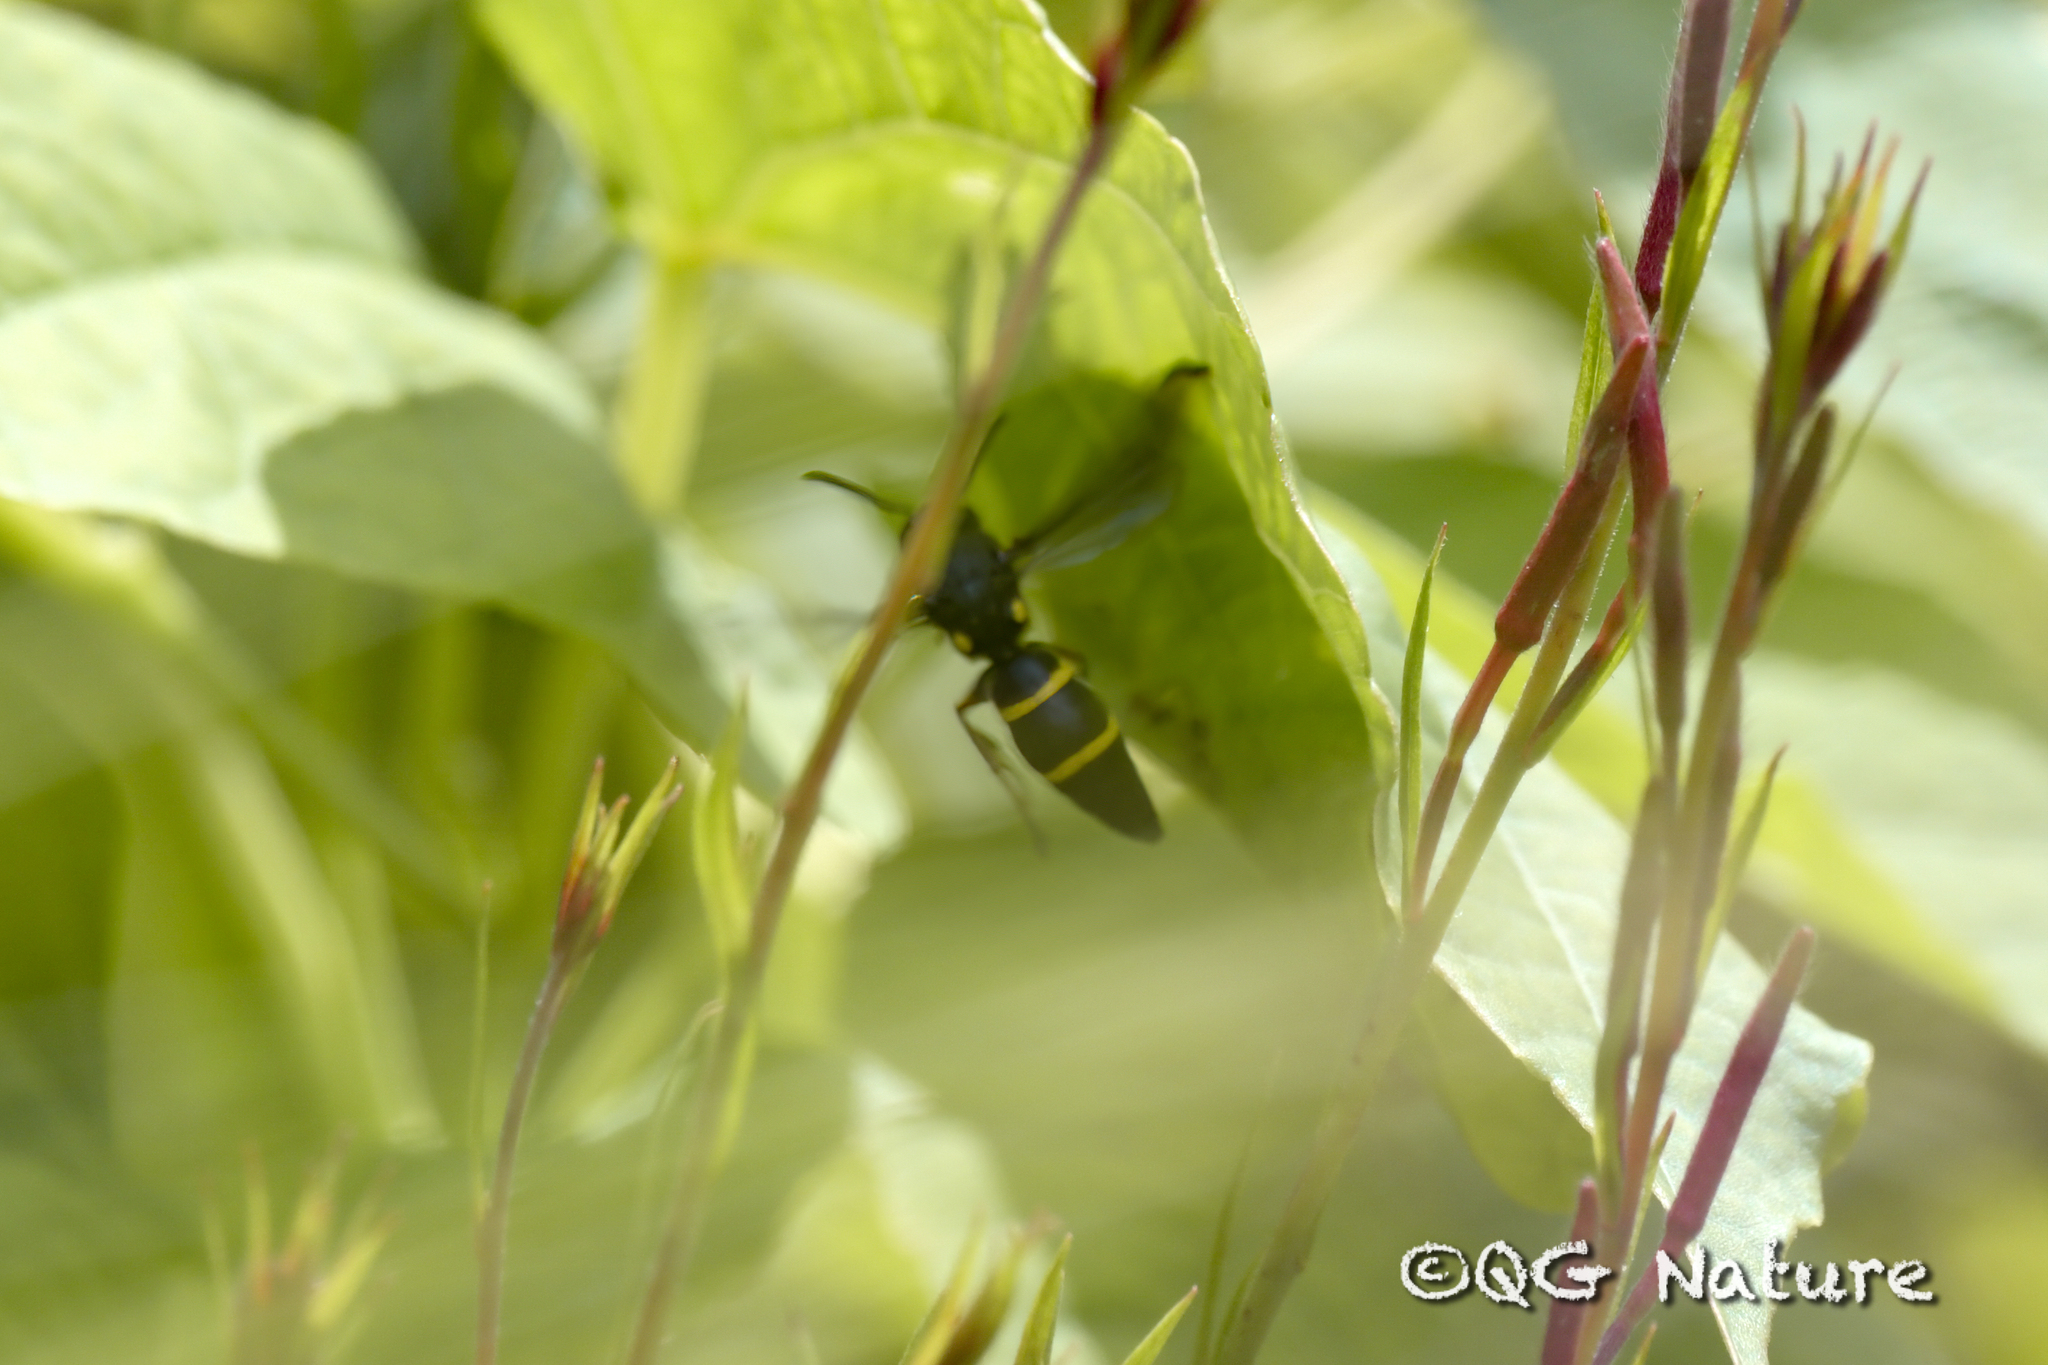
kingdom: Animalia
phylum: Arthropoda
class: Insecta
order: Hymenoptera
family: Eumenidae
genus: Anterhynchium
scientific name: Anterhynchium flavomarginatum
